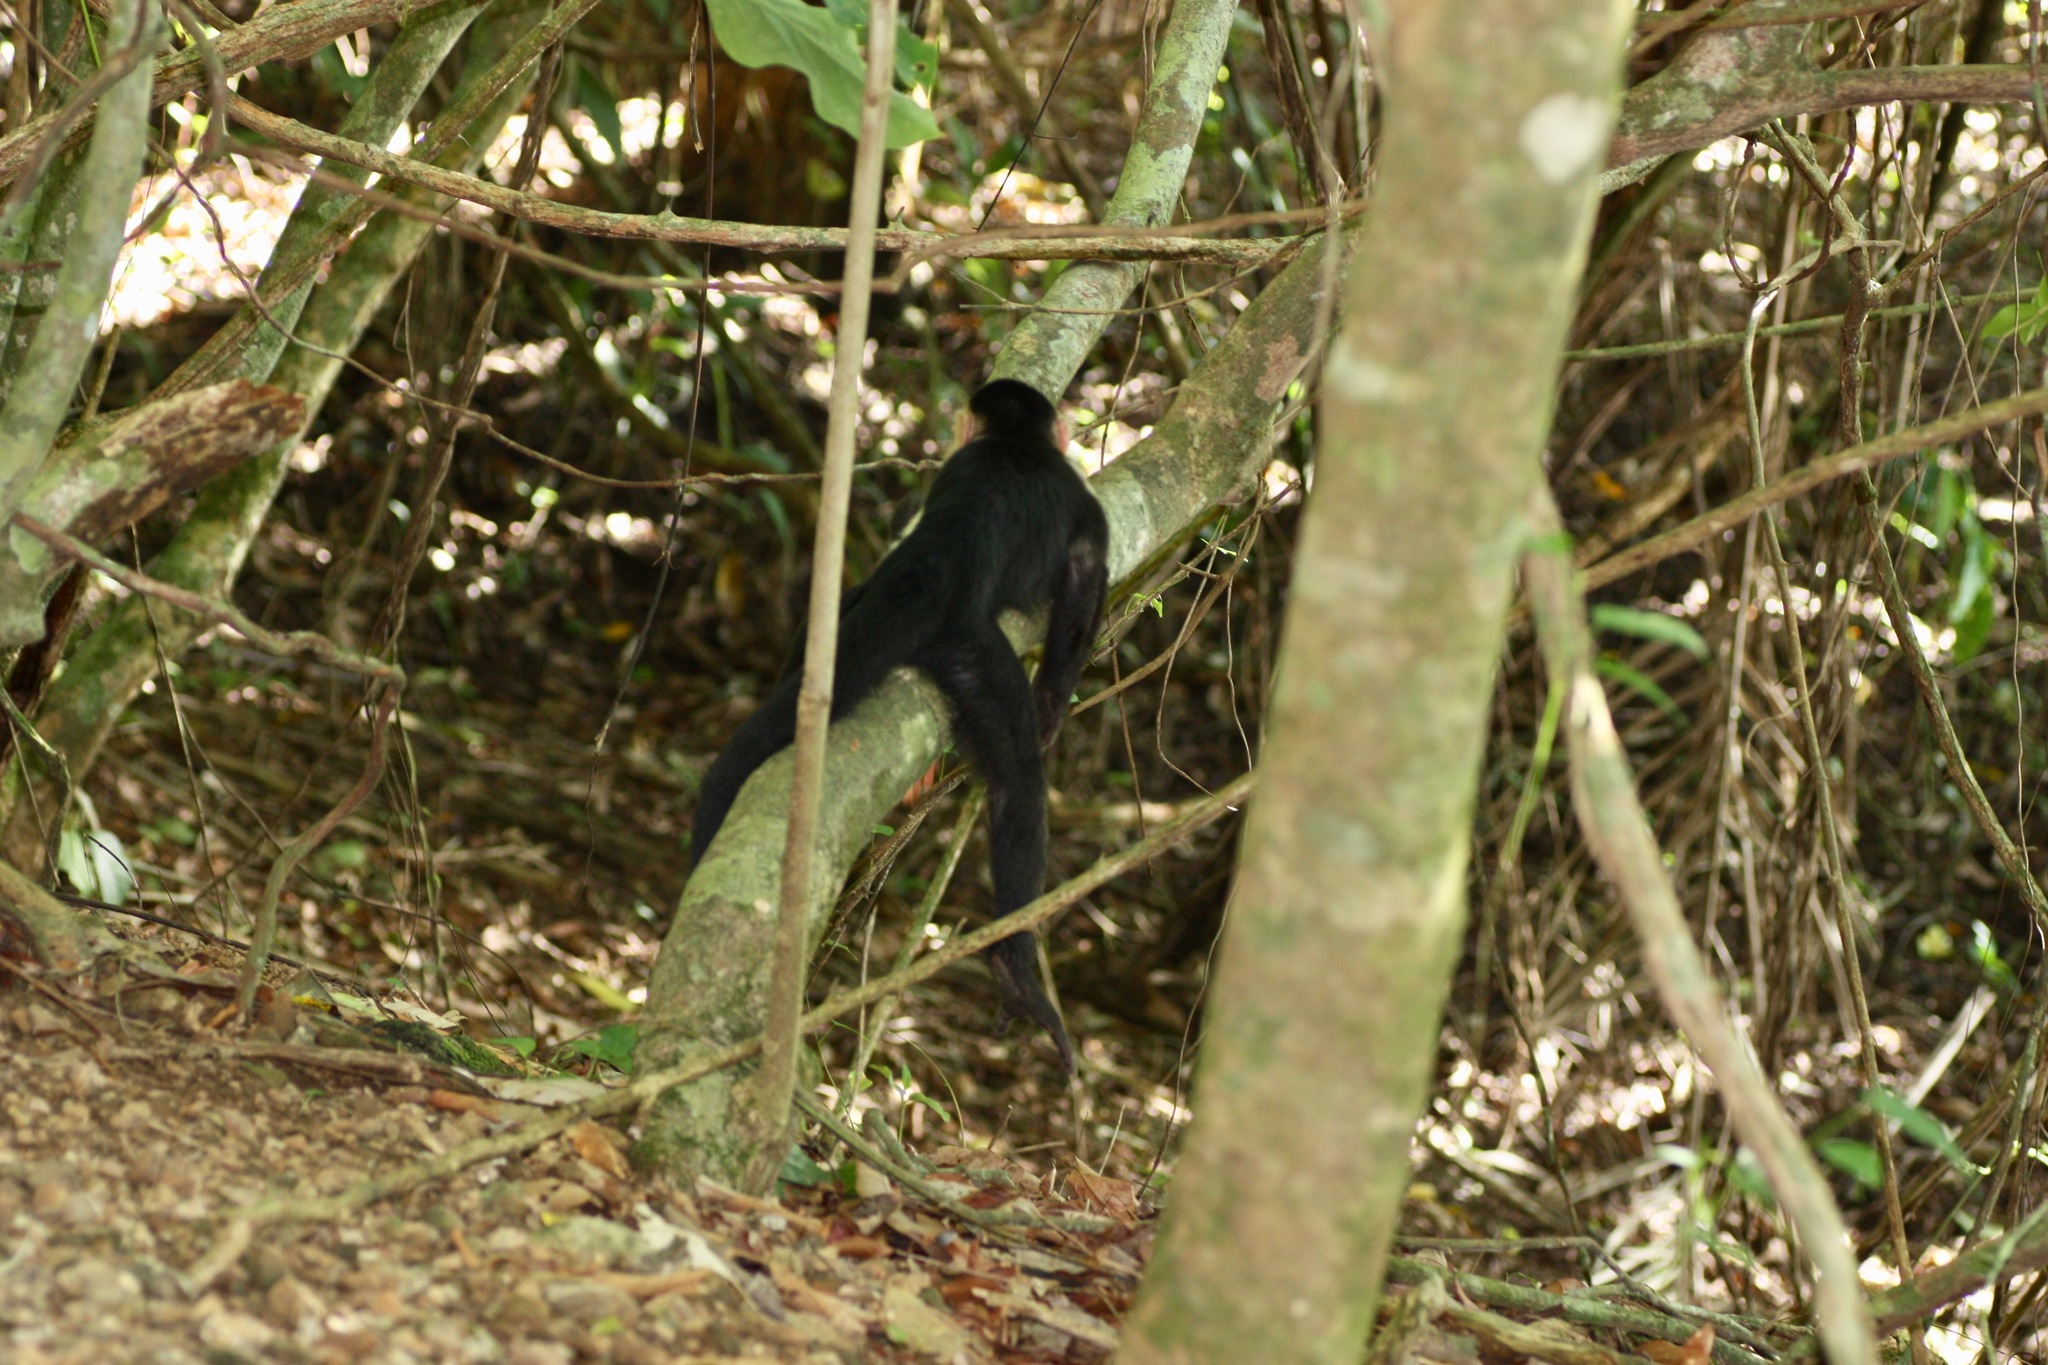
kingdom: Animalia
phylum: Chordata
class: Mammalia
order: Primates
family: Cebidae
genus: Cebus
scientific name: Cebus imitator
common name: Panamanian white-faced capuchin
